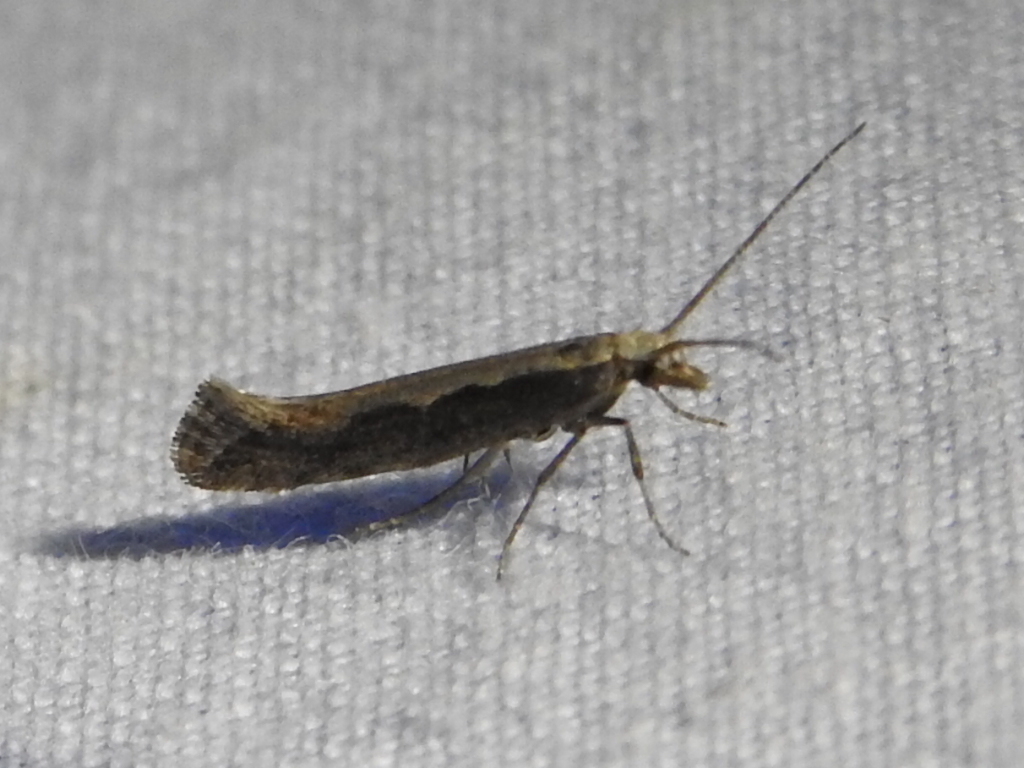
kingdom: Animalia
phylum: Arthropoda
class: Insecta
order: Lepidoptera
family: Plutellidae
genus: Plutella
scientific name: Plutella xylostella
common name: Diamond-back moth
